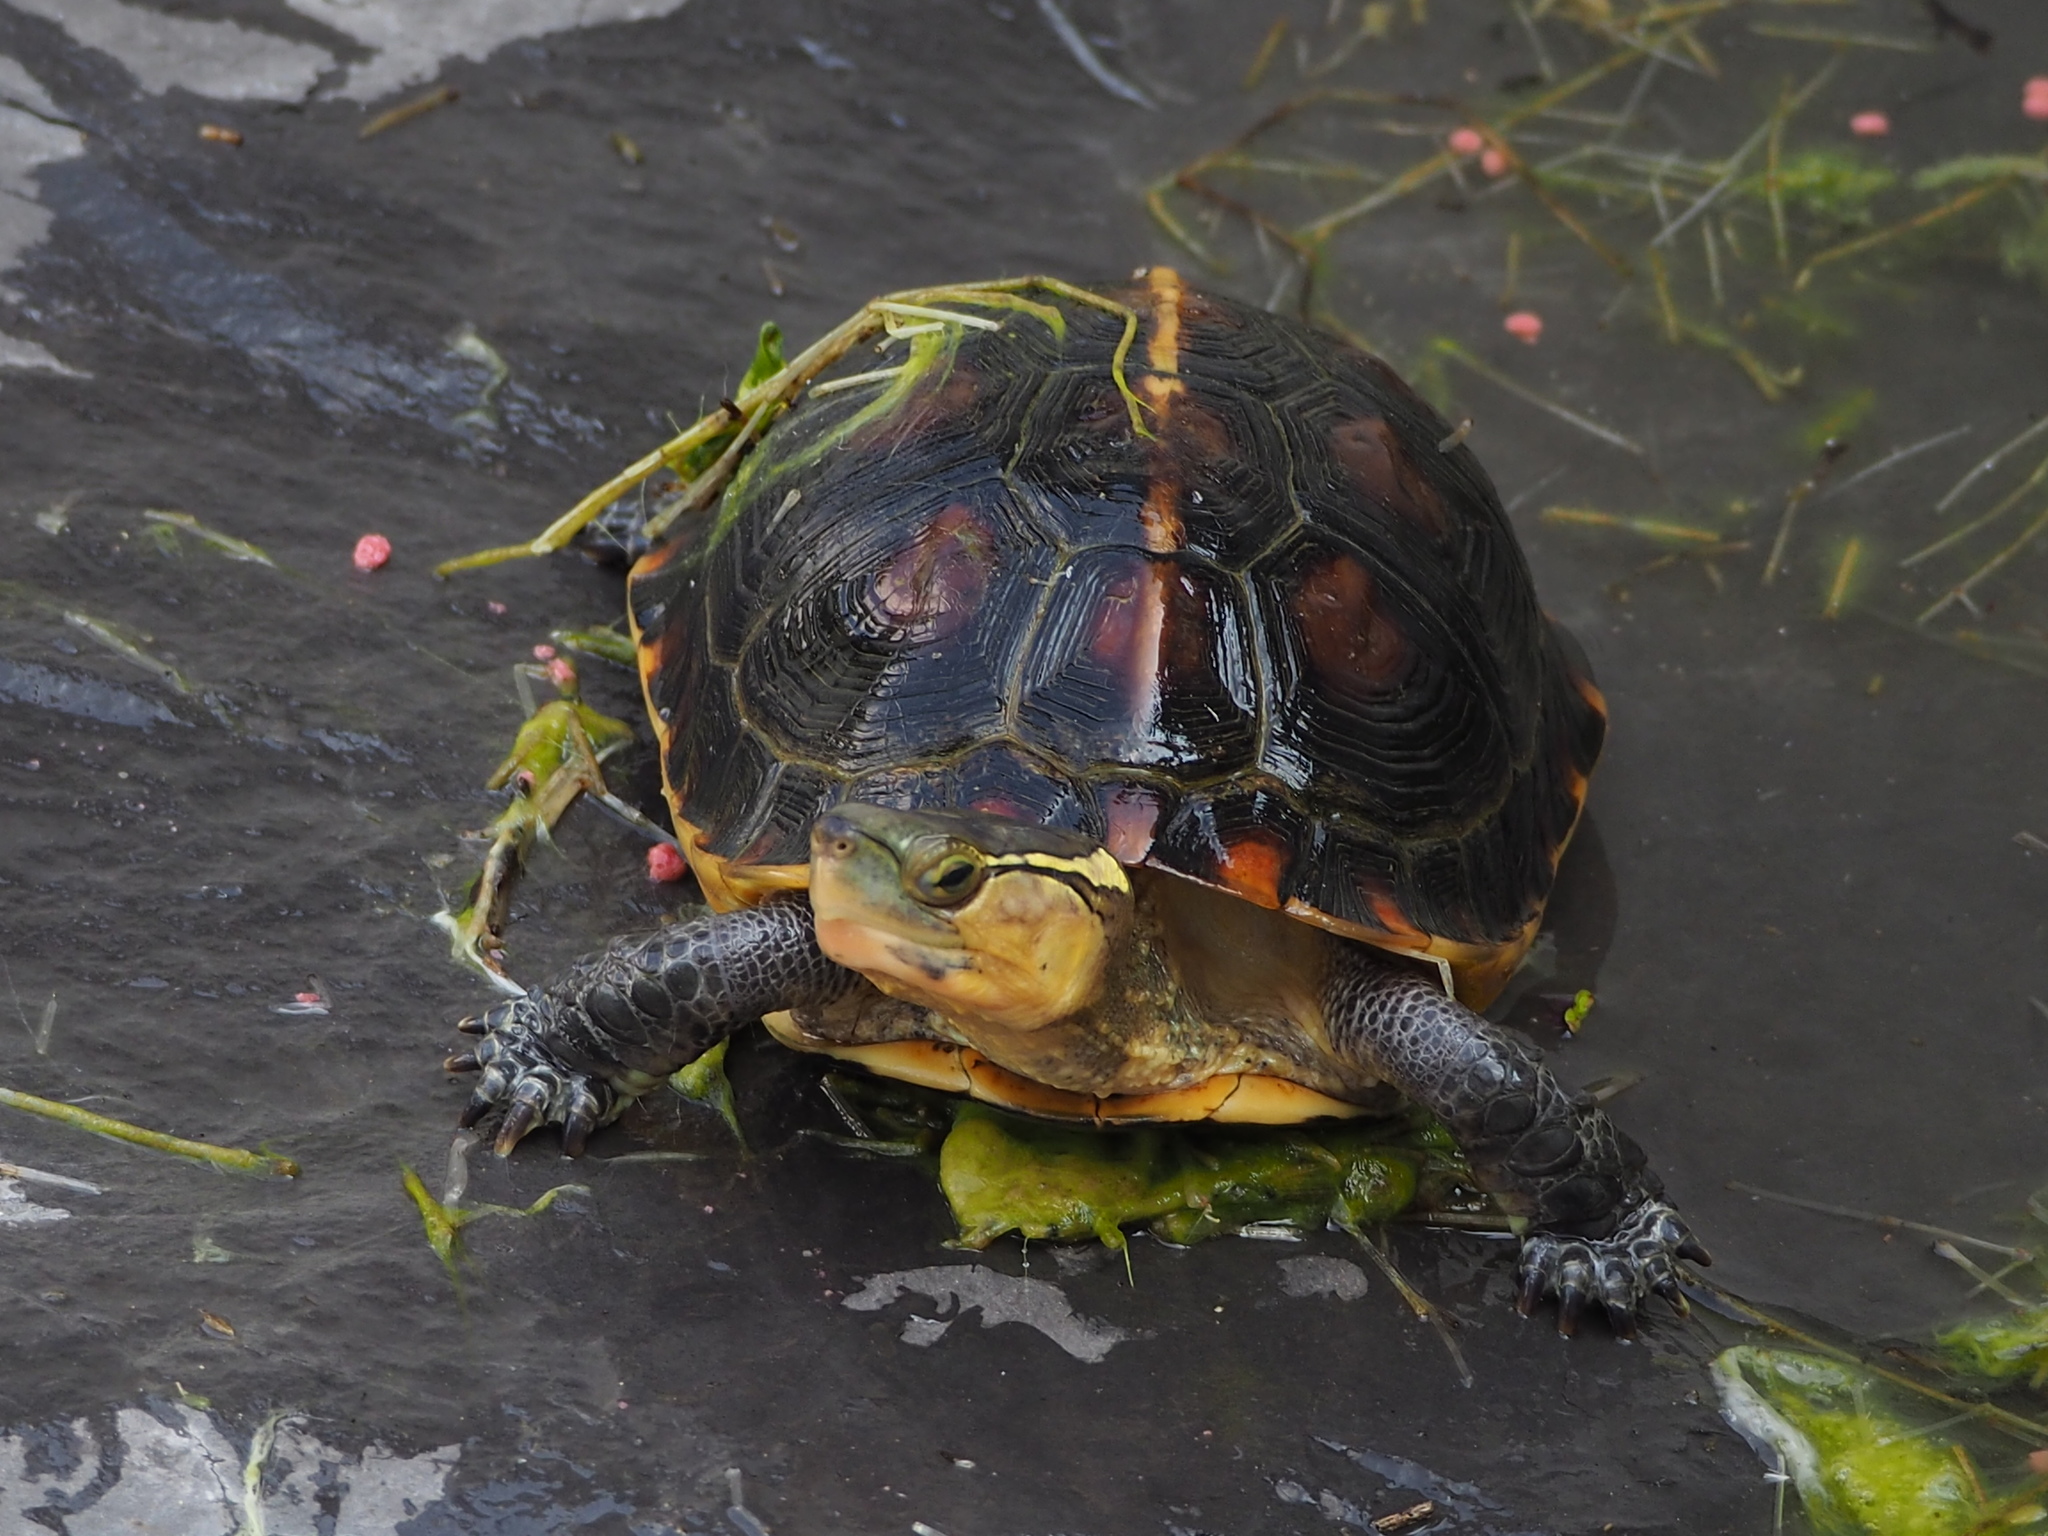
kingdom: Animalia
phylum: Chordata
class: Testudines
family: Geoemydidae
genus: Cuora
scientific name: Cuora flavomarginata
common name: Yellow-margined box turtle
